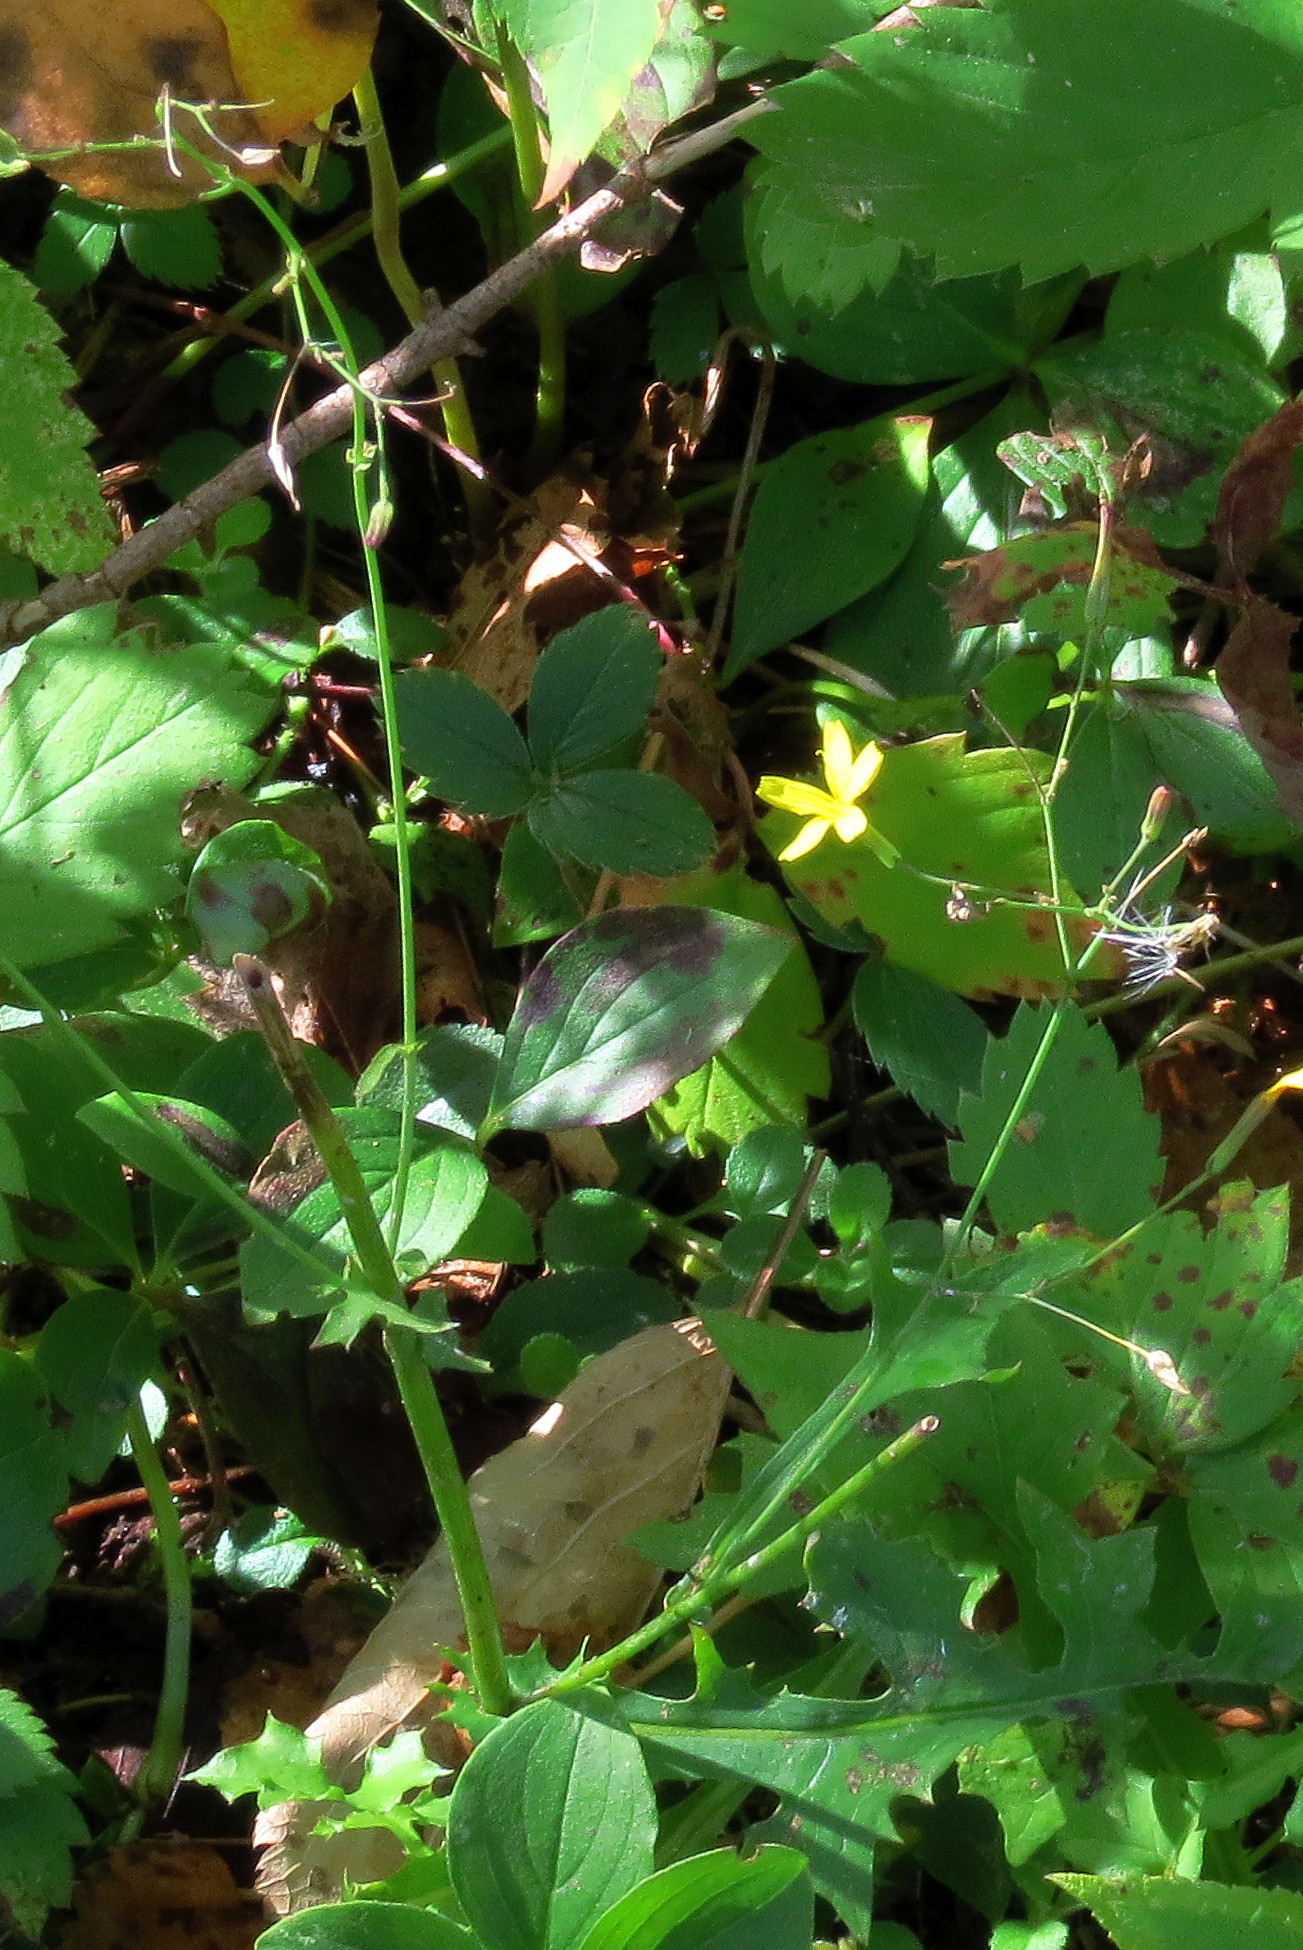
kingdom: Plantae
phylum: Tracheophyta
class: Magnoliopsida
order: Asterales
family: Asteraceae
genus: Mycelis
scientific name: Mycelis muralis
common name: Wall lettuce
